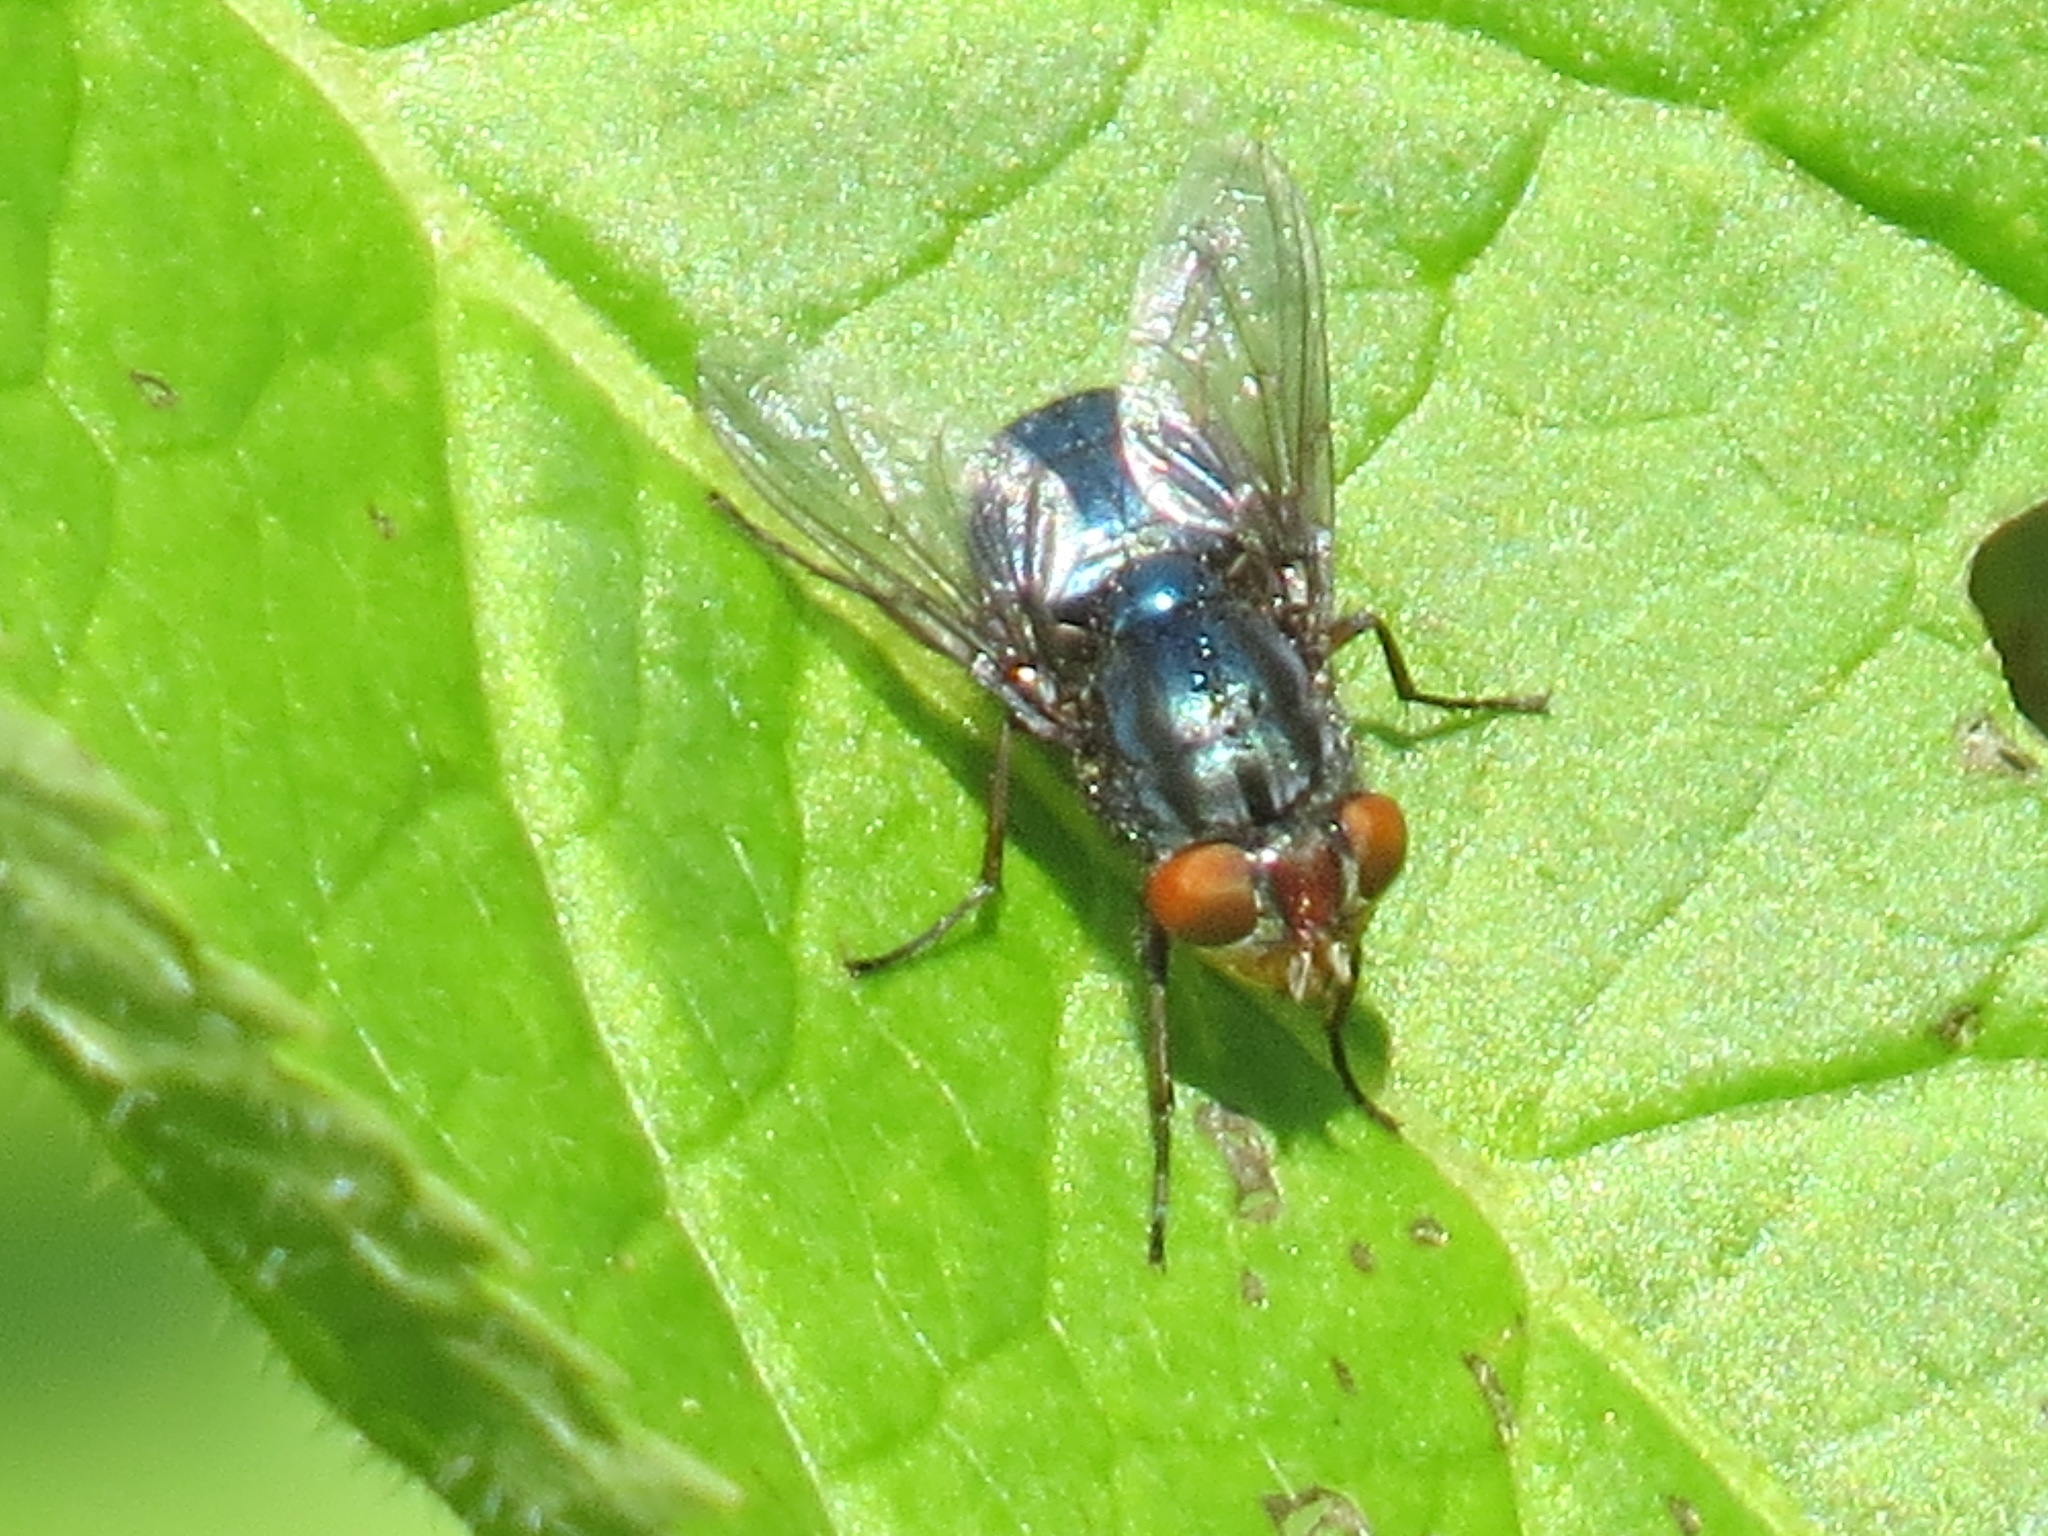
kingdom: Animalia
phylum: Arthropoda
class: Insecta
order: Diptera
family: Calliphoridae
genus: Cochliomyia
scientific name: Cochliomyia macellaria
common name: Secondary screwworm
